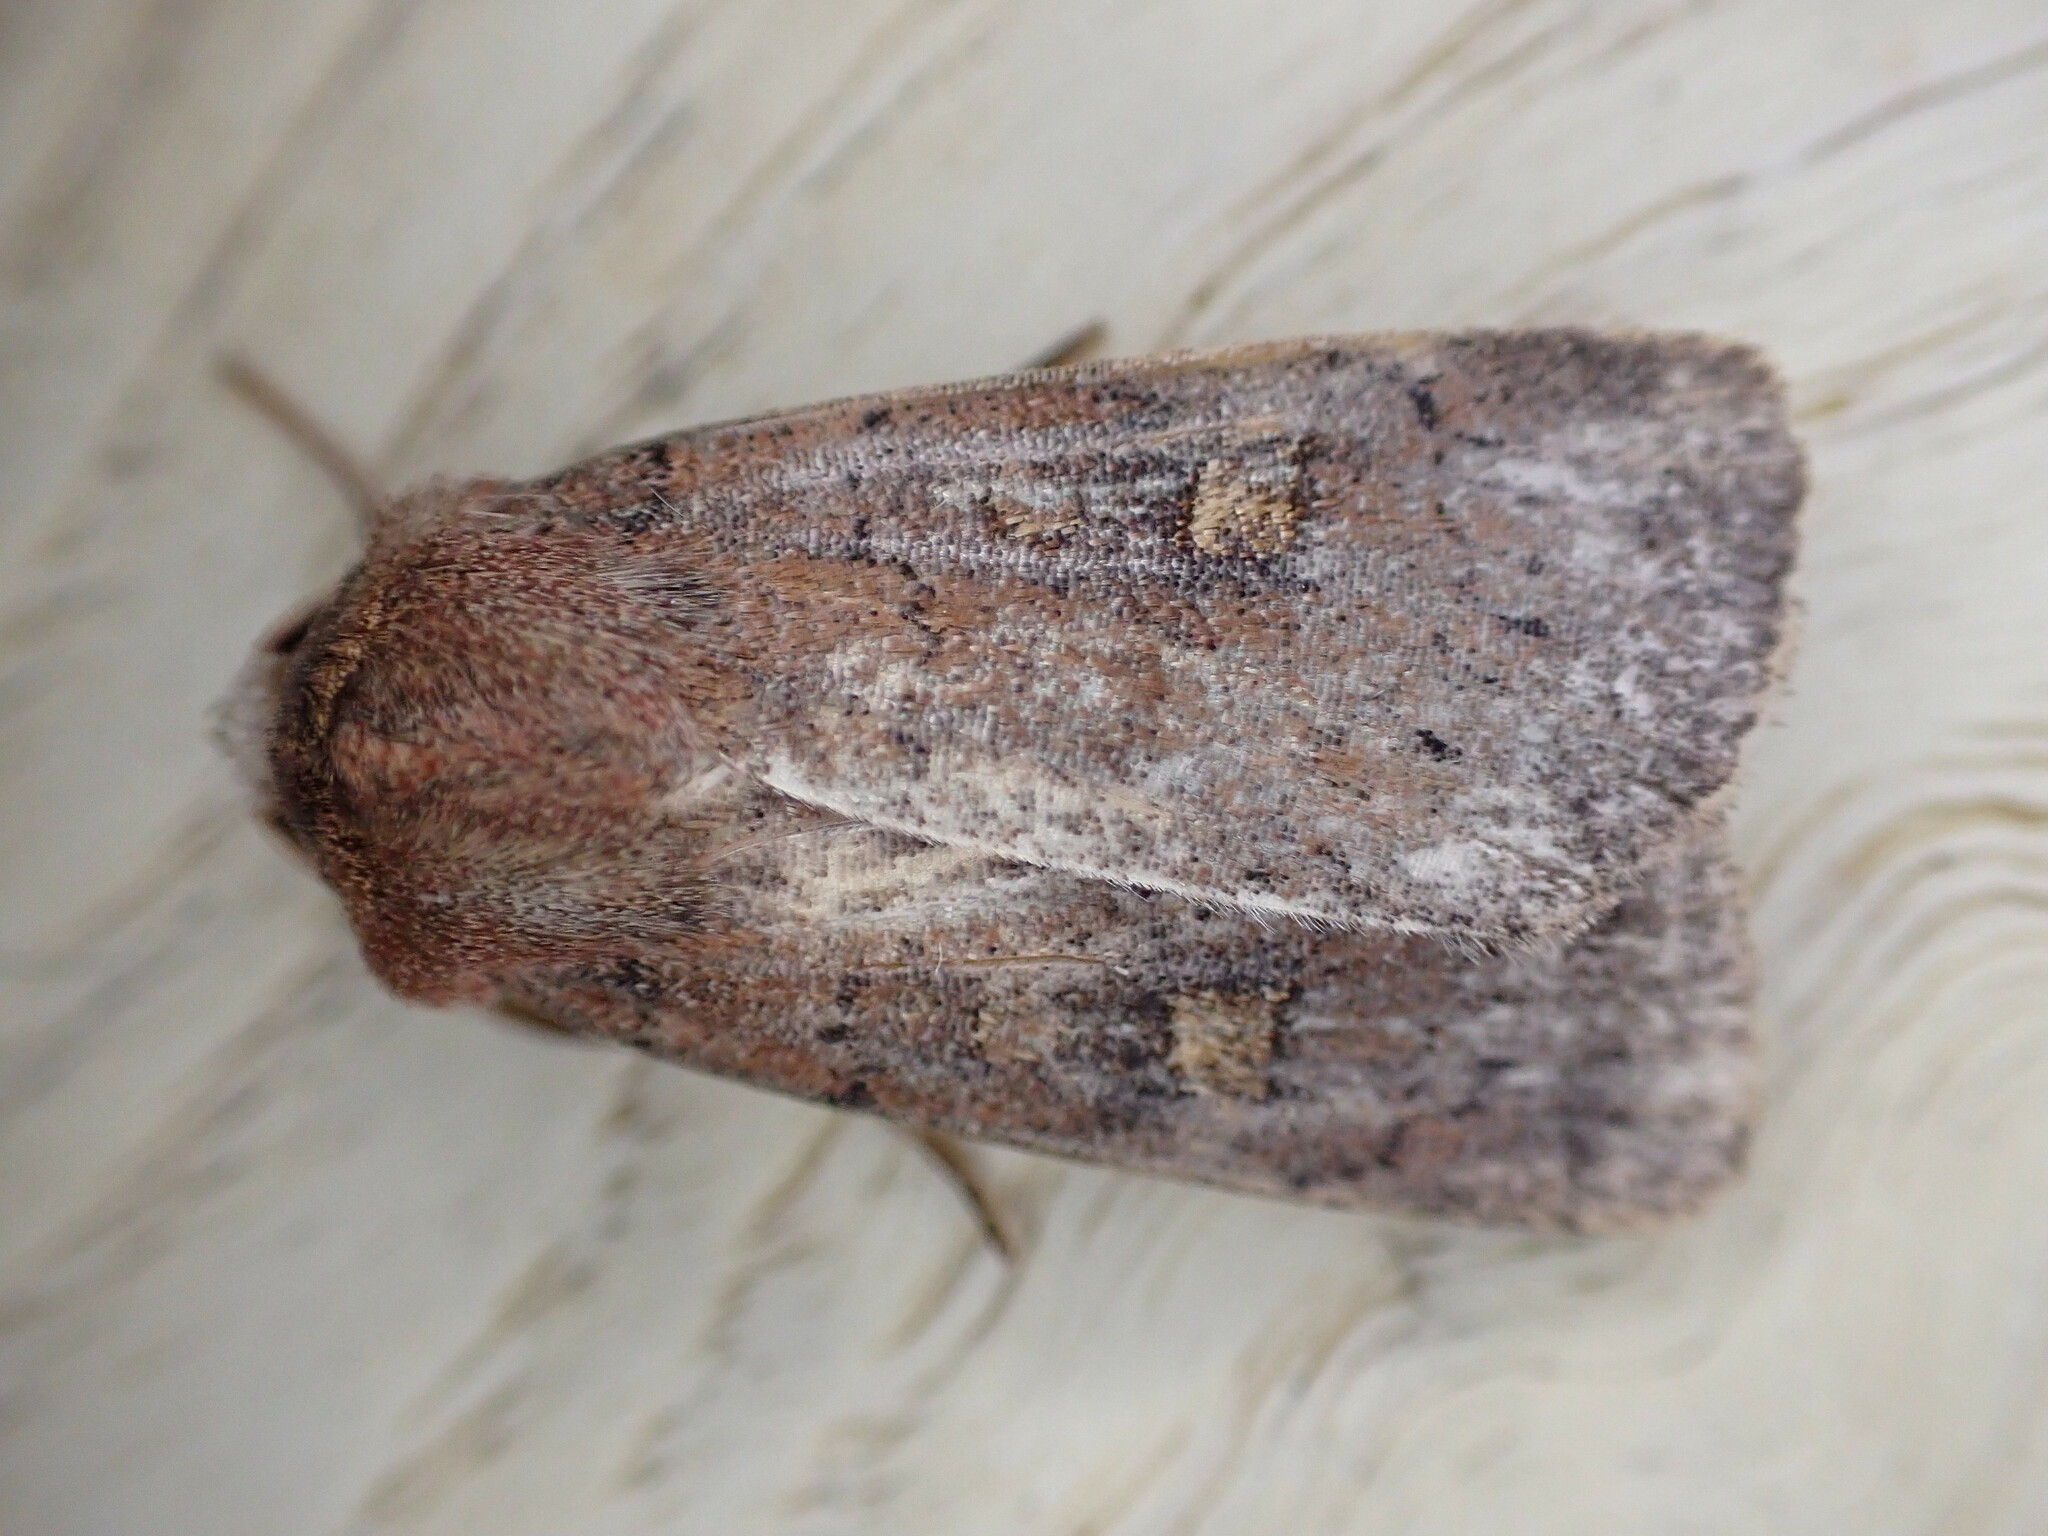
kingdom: Animalia
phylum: Arthropoda
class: Insecta
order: Lepidoptera
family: Noctuidae
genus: Xestia
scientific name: Xestia xanthographa
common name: Square-spot rustic
